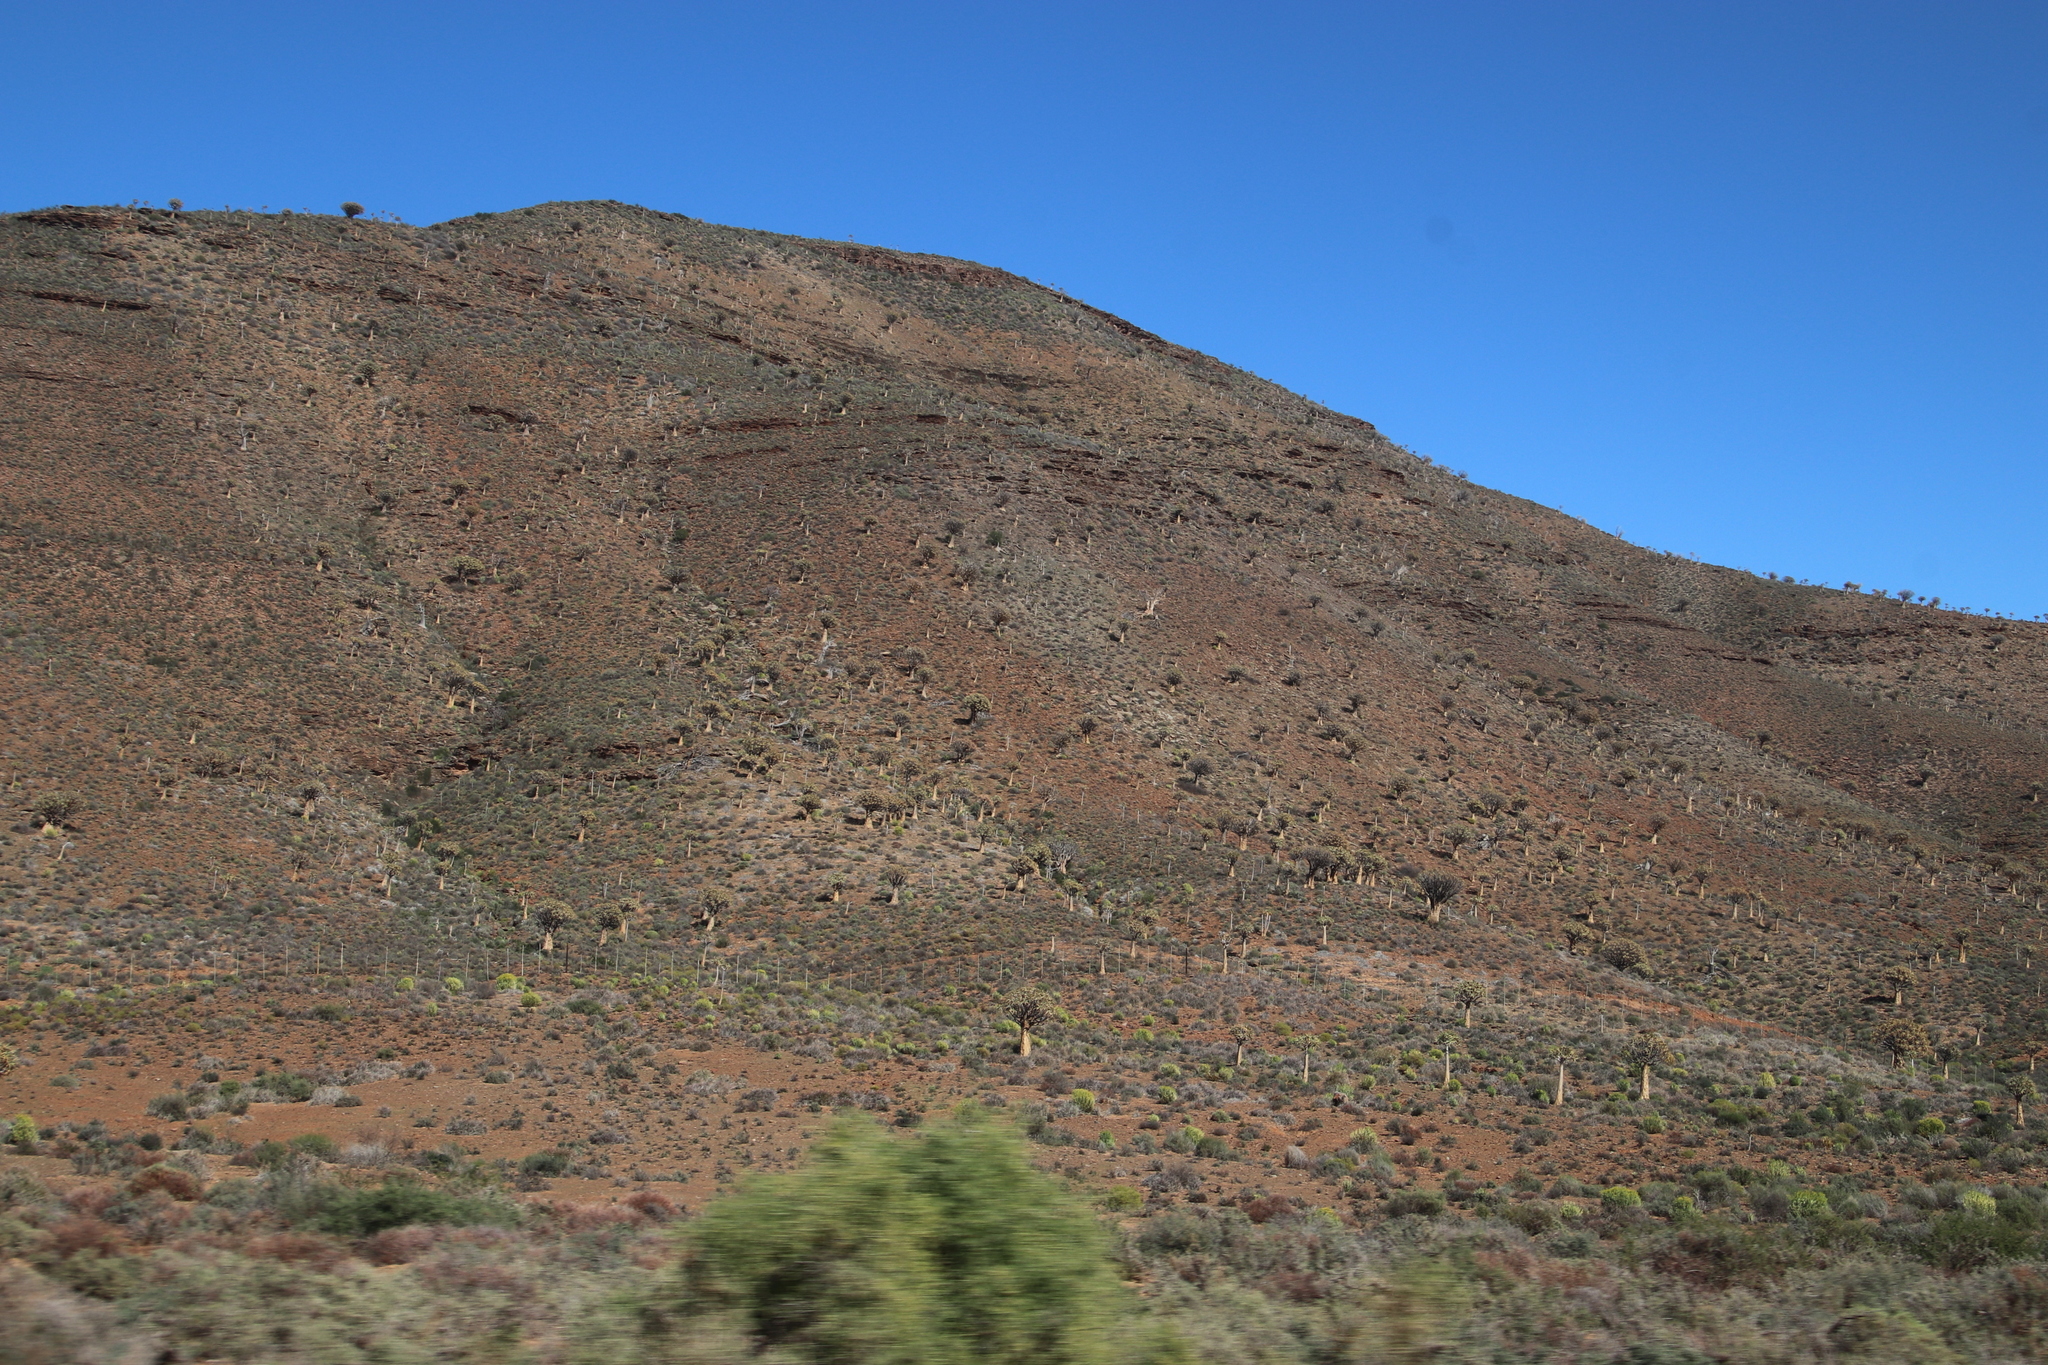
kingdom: Plantae
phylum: Tracheophyta
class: Liliopsida
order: Asparagales
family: Asphodelaceae
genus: Aloidendron
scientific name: Aloidendron dichotomum
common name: Quiver tree
